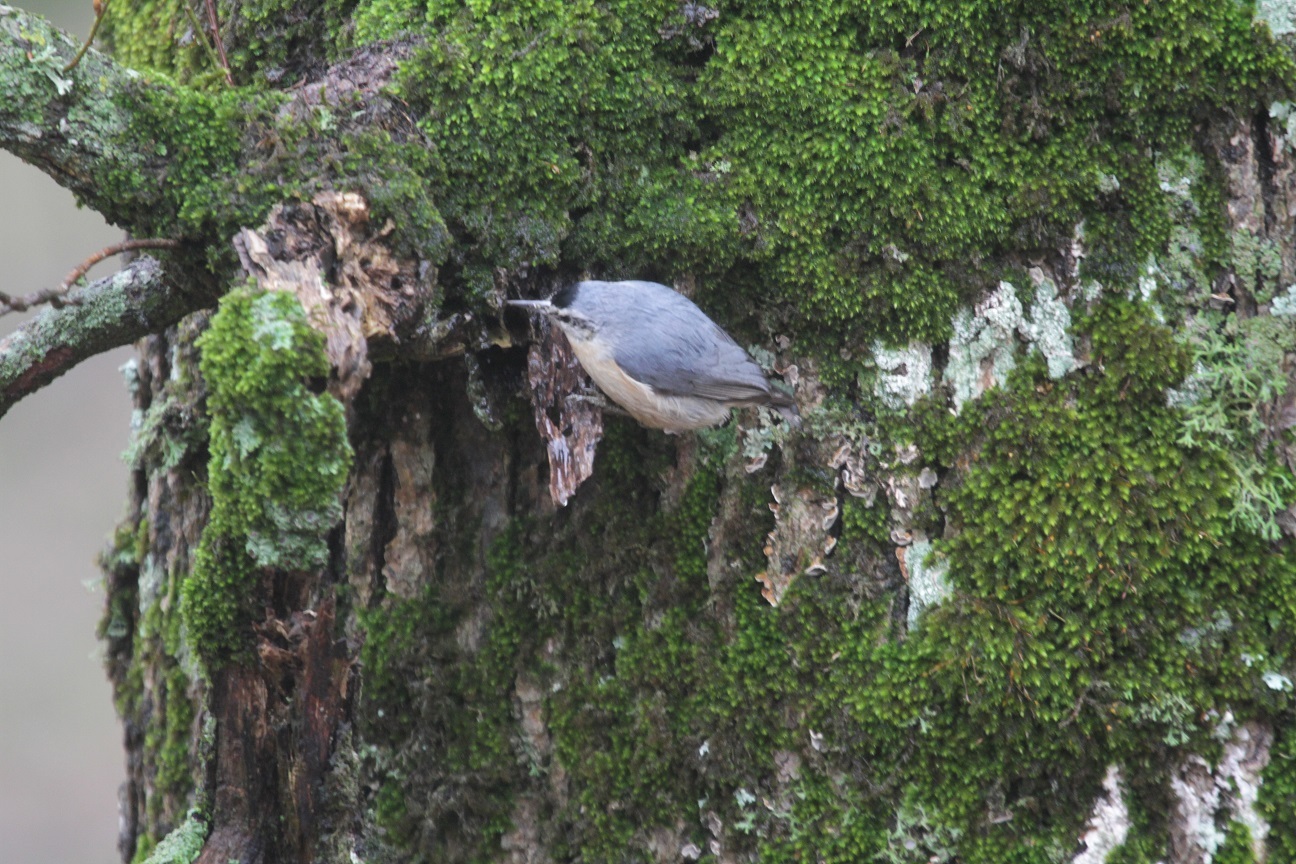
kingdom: Animalia
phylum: Chordata
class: Aves
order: Passeriformes
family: Sittidae
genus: Sitta
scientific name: Sitta ledanti
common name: Algerian nuthatch
